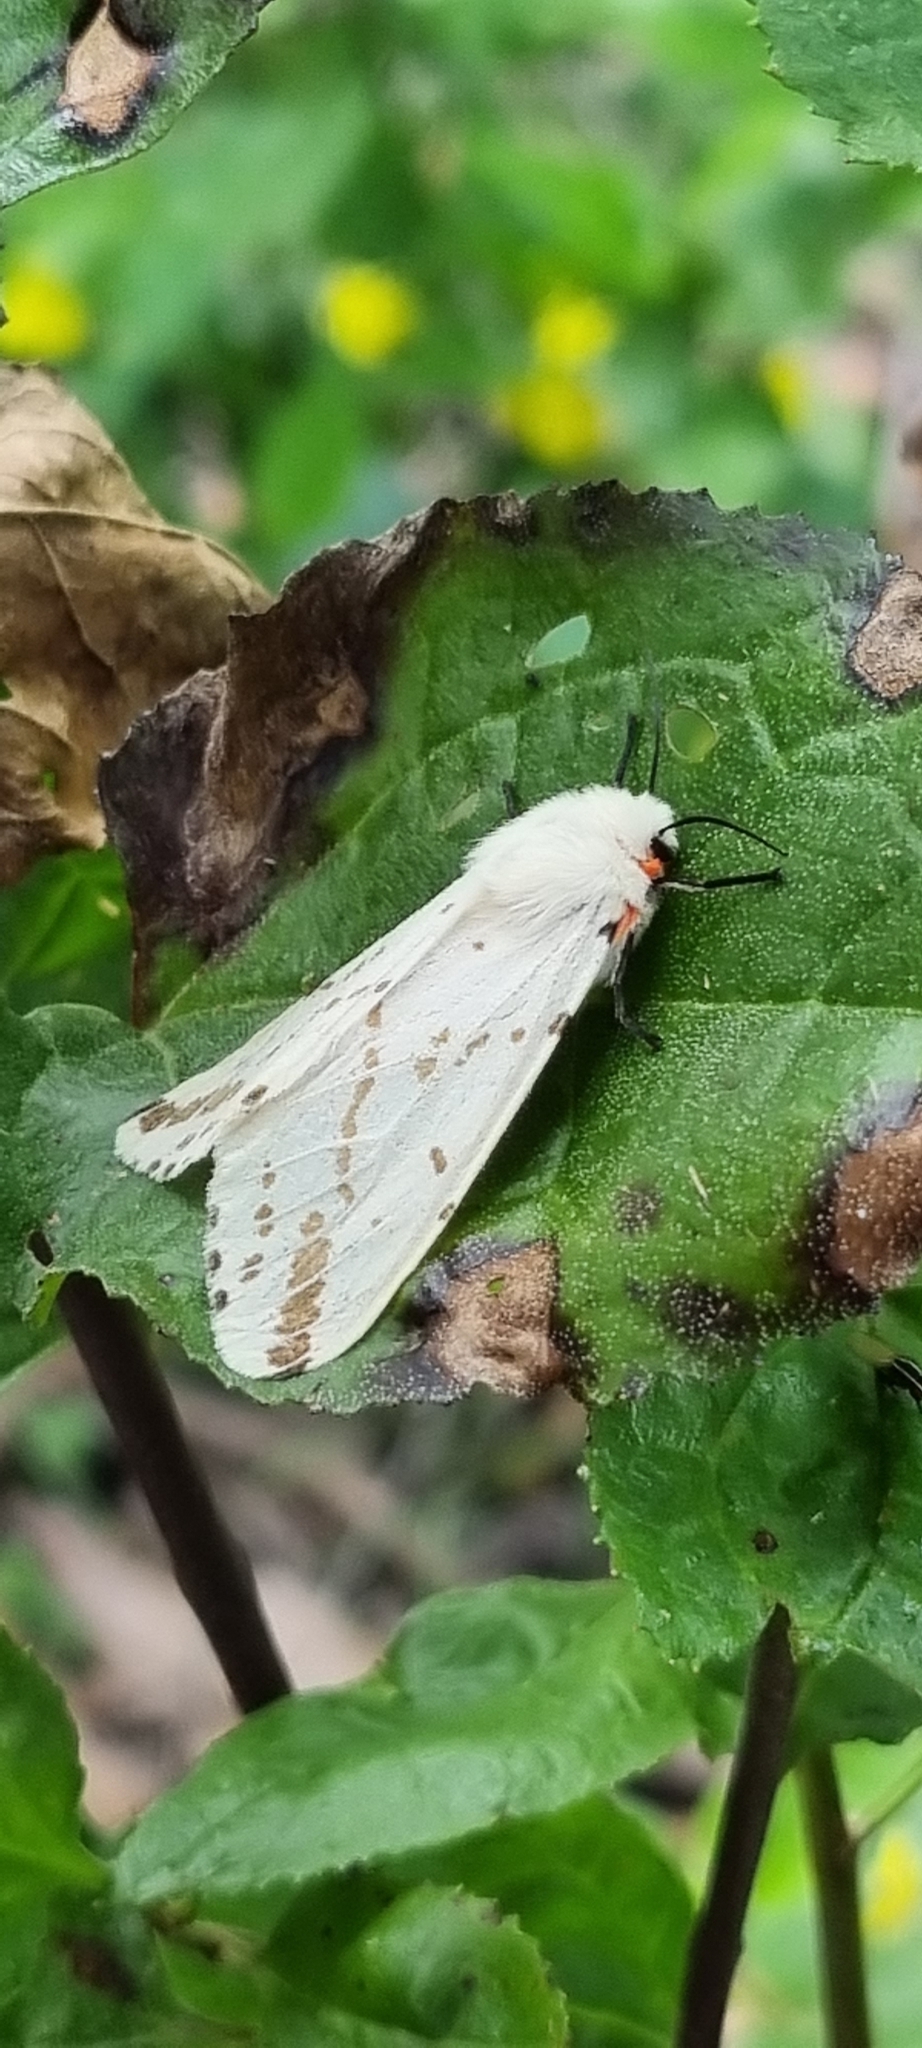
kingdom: Animalia
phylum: Arthropoda
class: Insecta
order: Lepidoptera
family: Erebidae
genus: Ardices
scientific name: Ardices canescens
